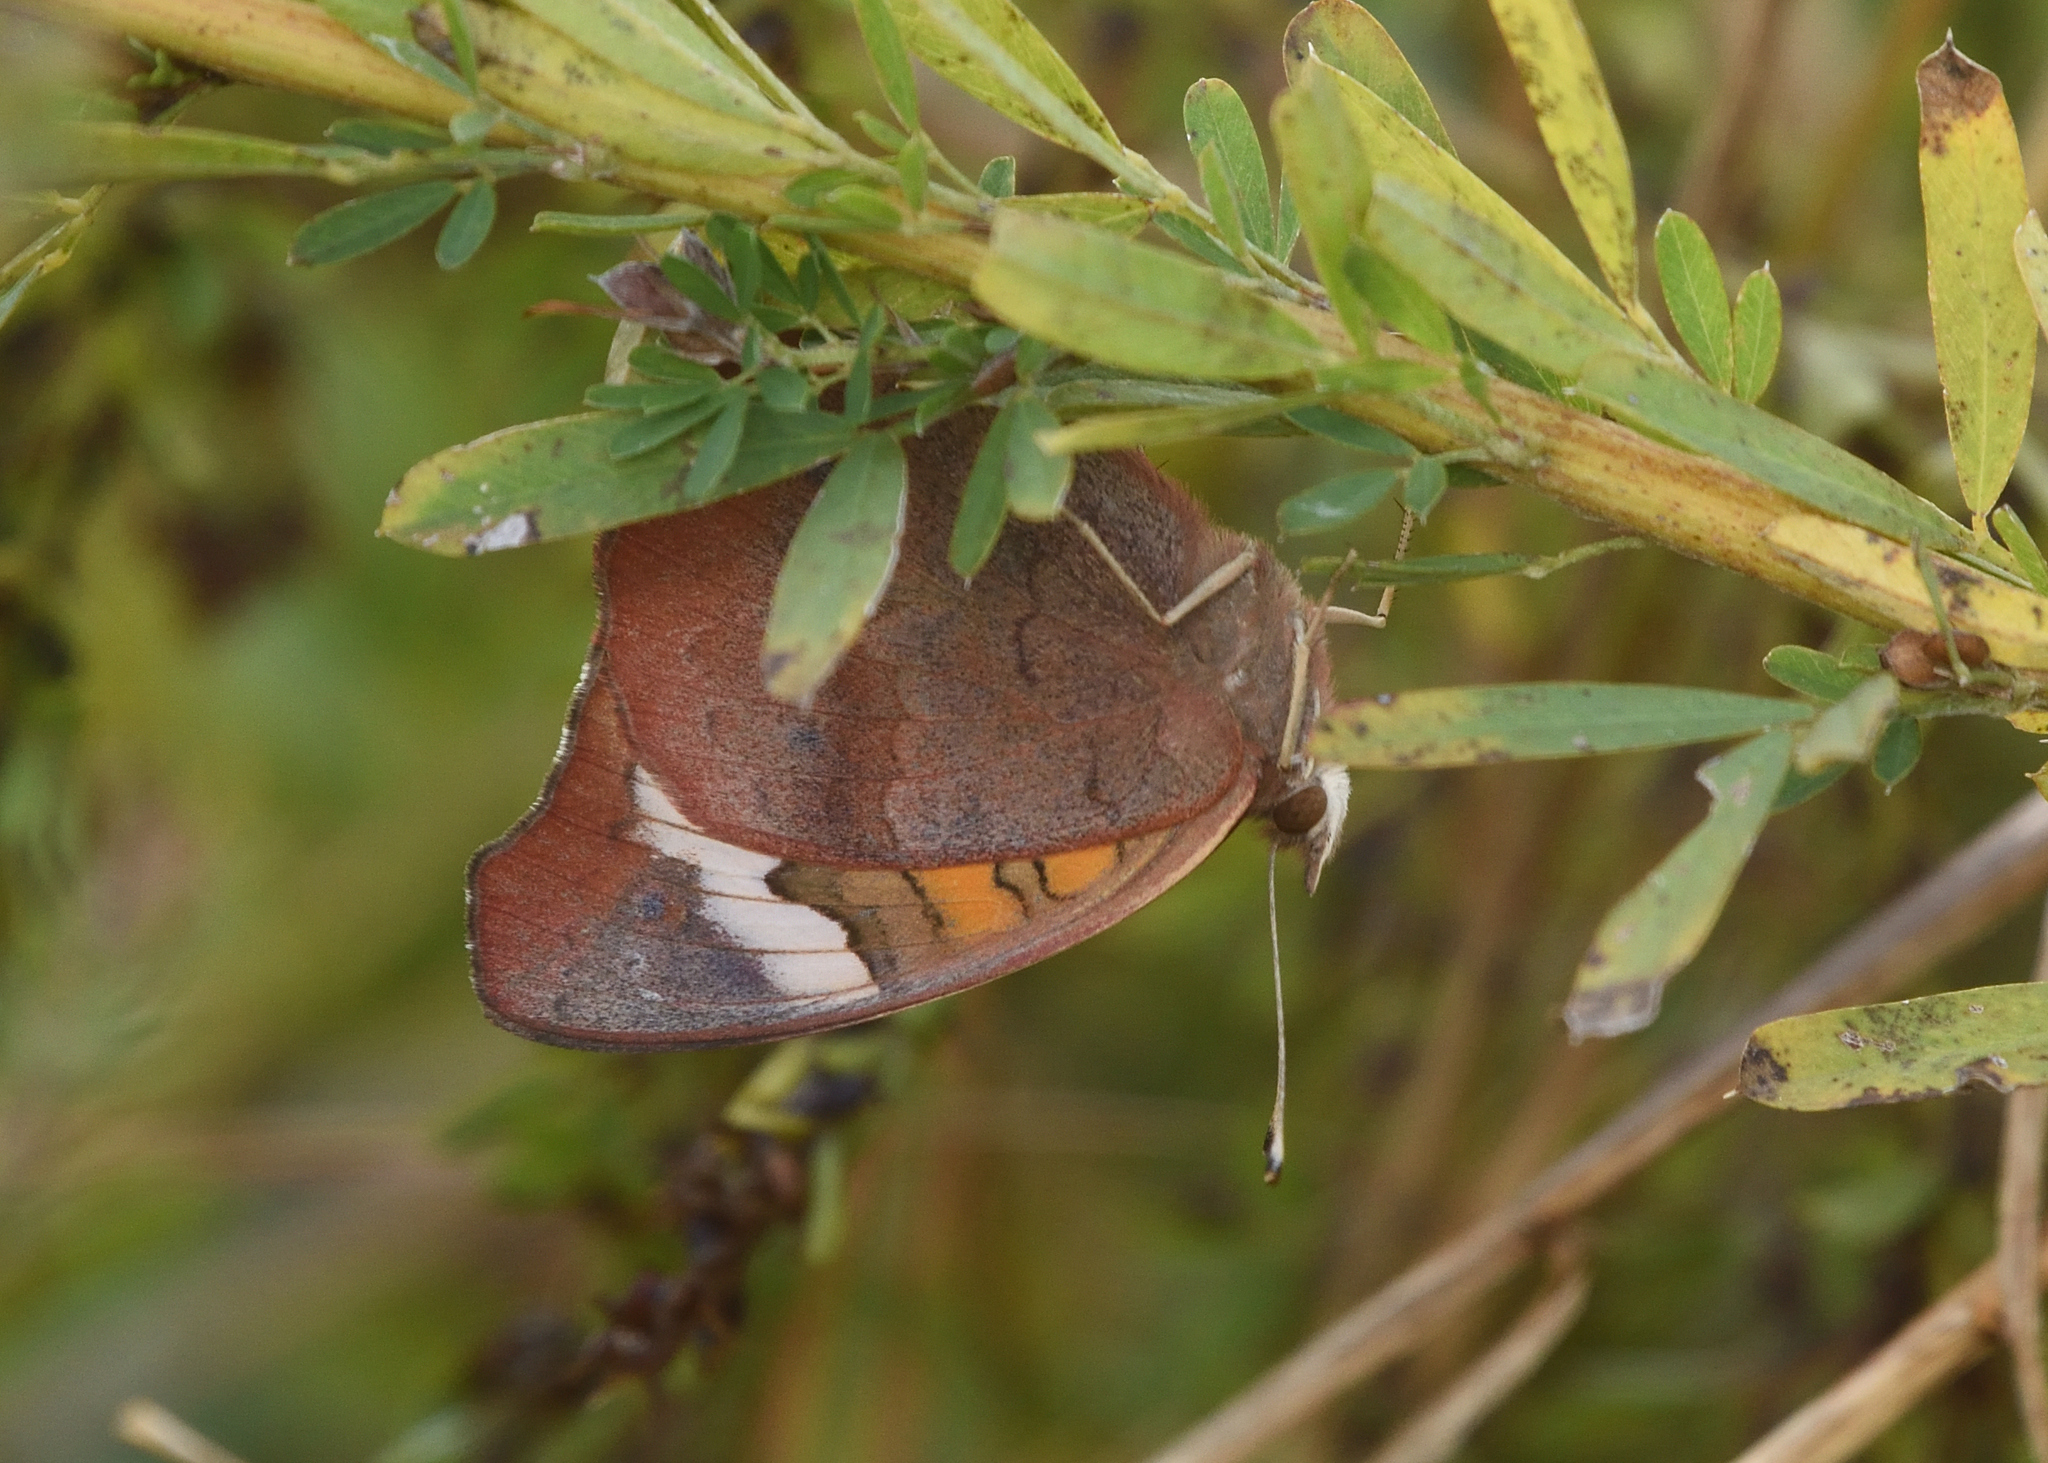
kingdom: Animalia
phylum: Arthropoda
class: Insecta
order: Lepidoptera
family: Nymphalidae
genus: Junonia
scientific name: Junonia coenia
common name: Common buckeye
